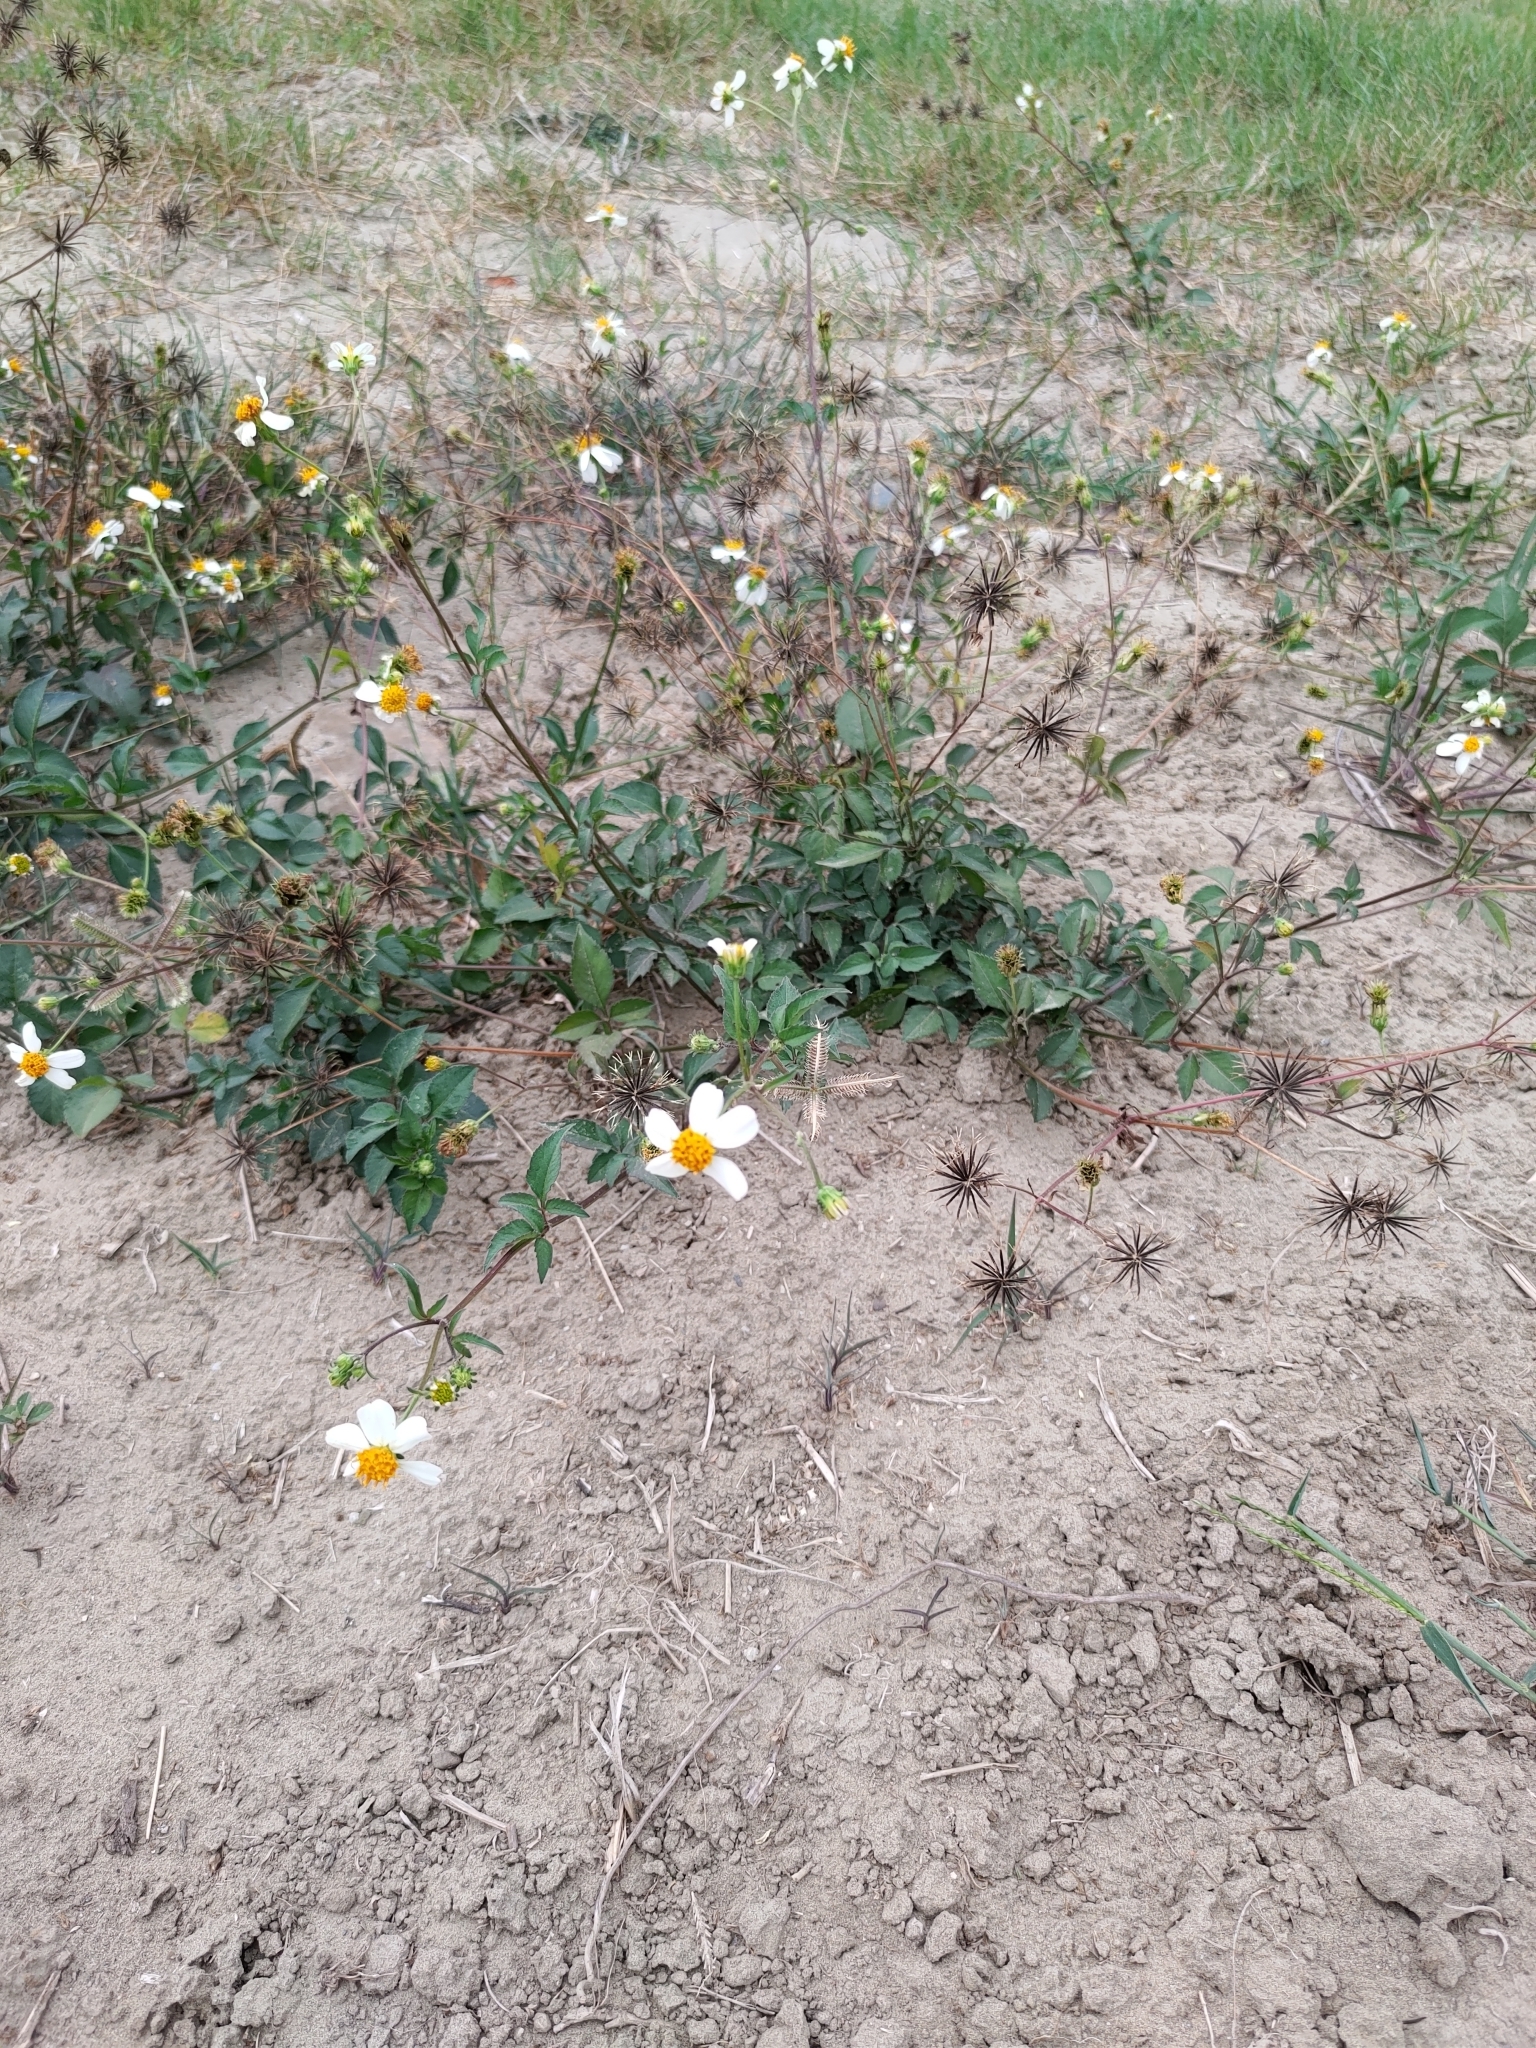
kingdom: Plantae
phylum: Tracheophyta
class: Magnoliopsida
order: Asterales
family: Asteraceae
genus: Bidens
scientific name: Bidens alba
